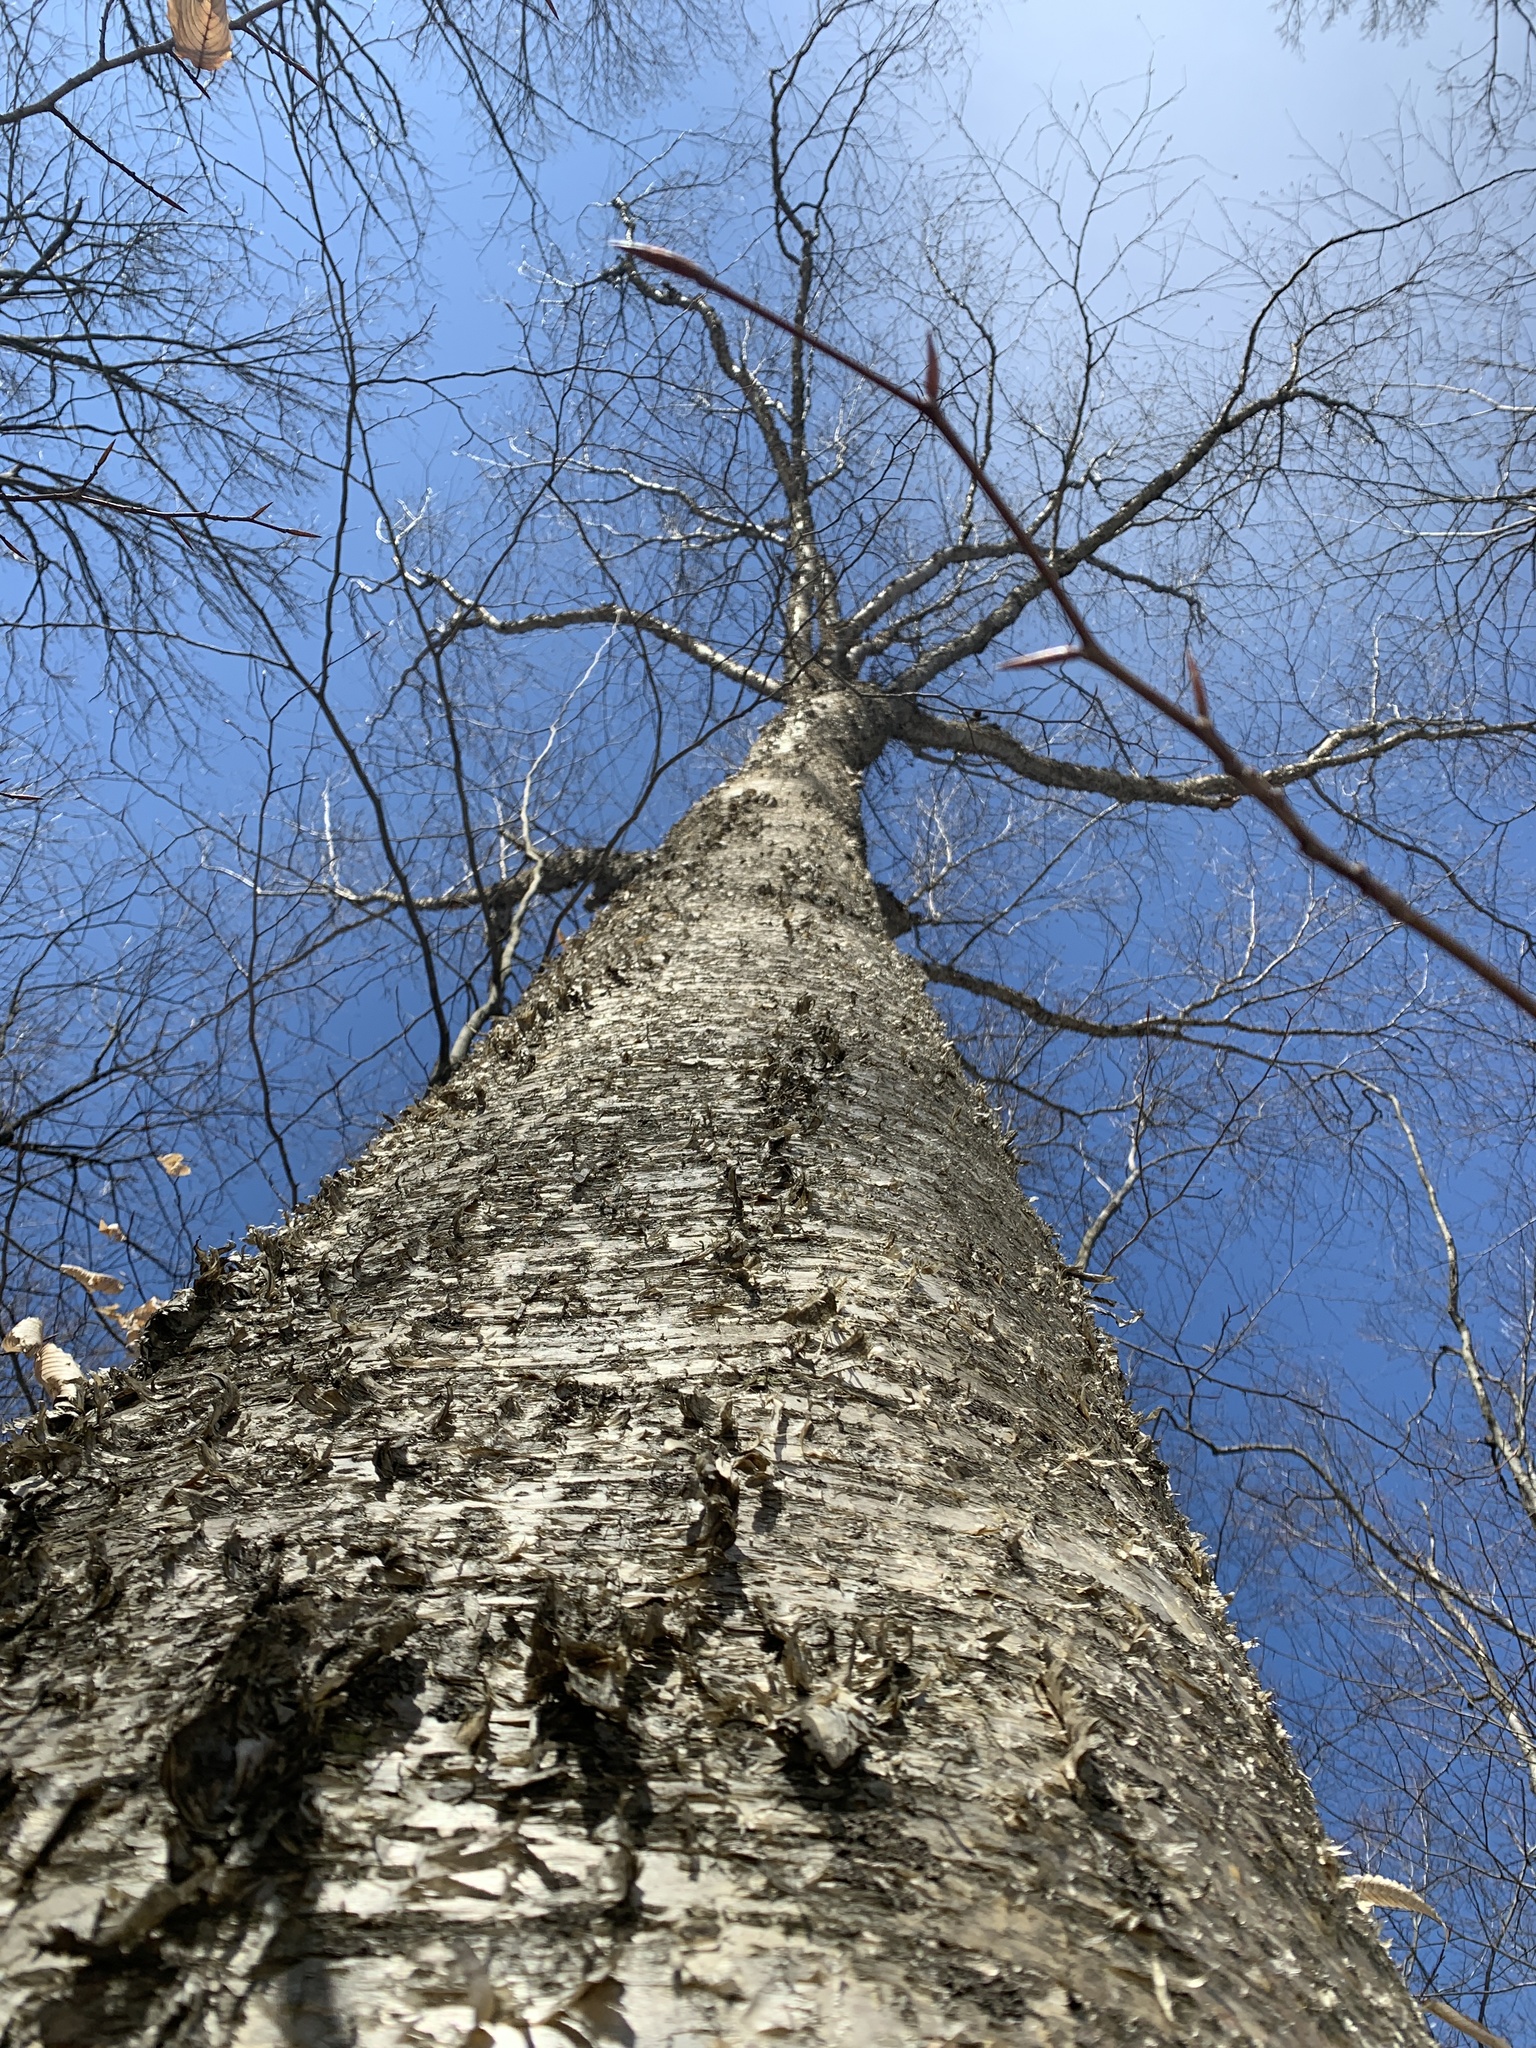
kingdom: Plantae
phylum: Tracheophyta
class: Magnoliopsida
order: Fagales
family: Betulaceae
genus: Betula
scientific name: Betula alleghaniensis
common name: Yellow birch
